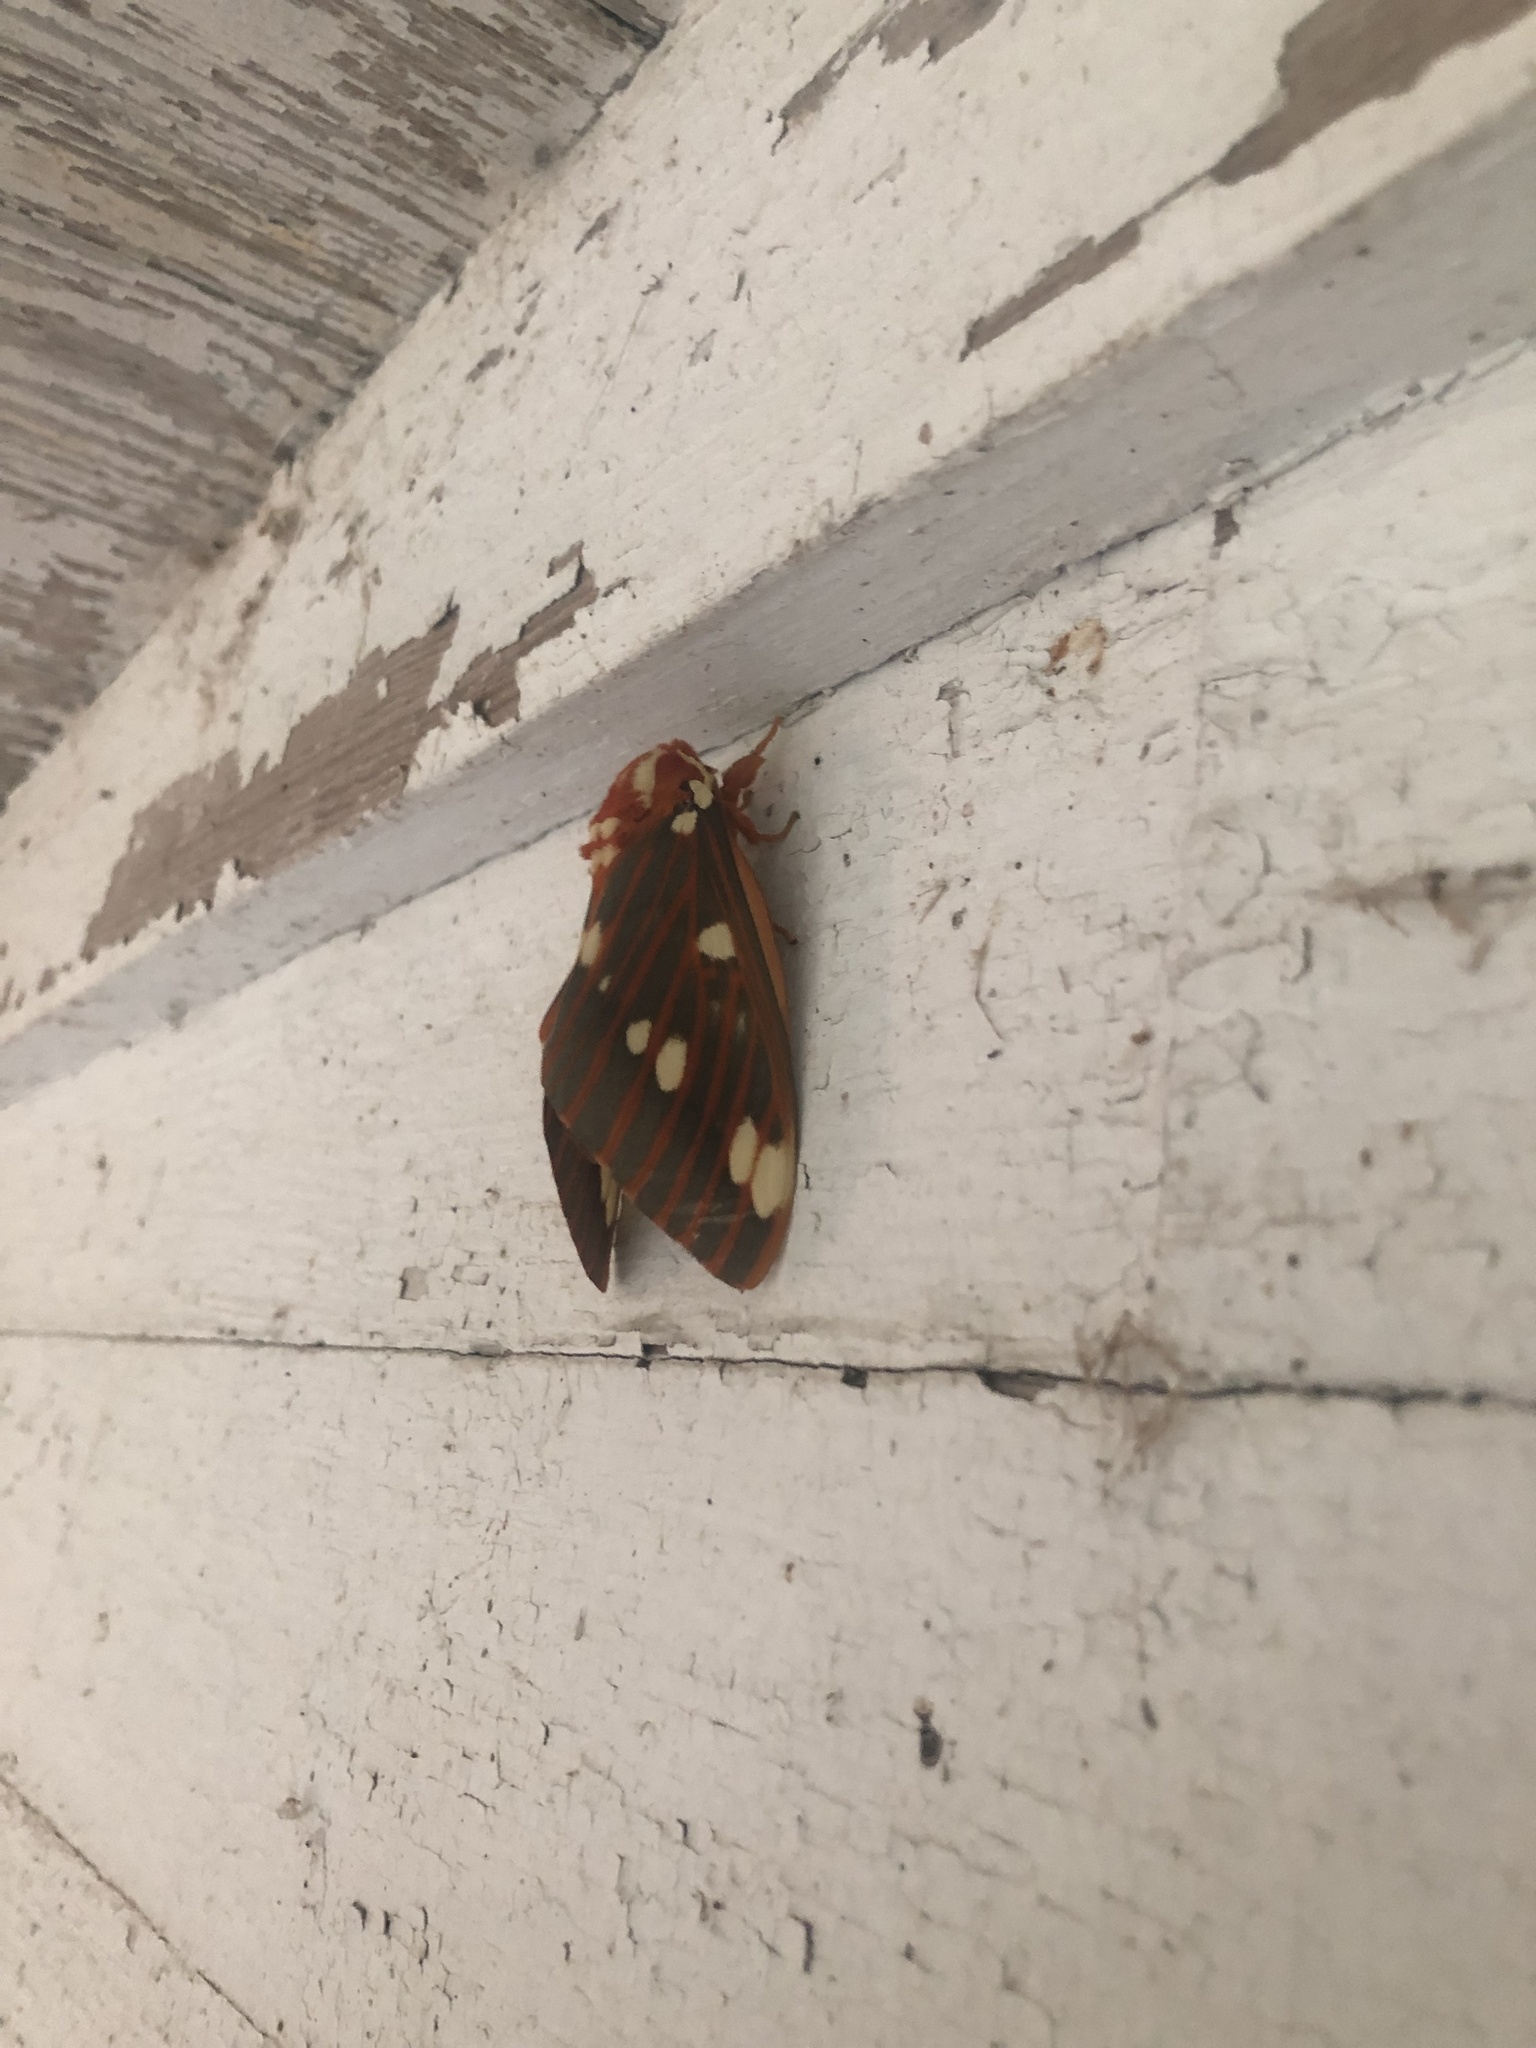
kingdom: Animalia
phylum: Arthropoda
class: Insecta
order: Lepidoptera
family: Saturniidae
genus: Citheronia
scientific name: Citheronia regalis
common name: Hickory horned devil
